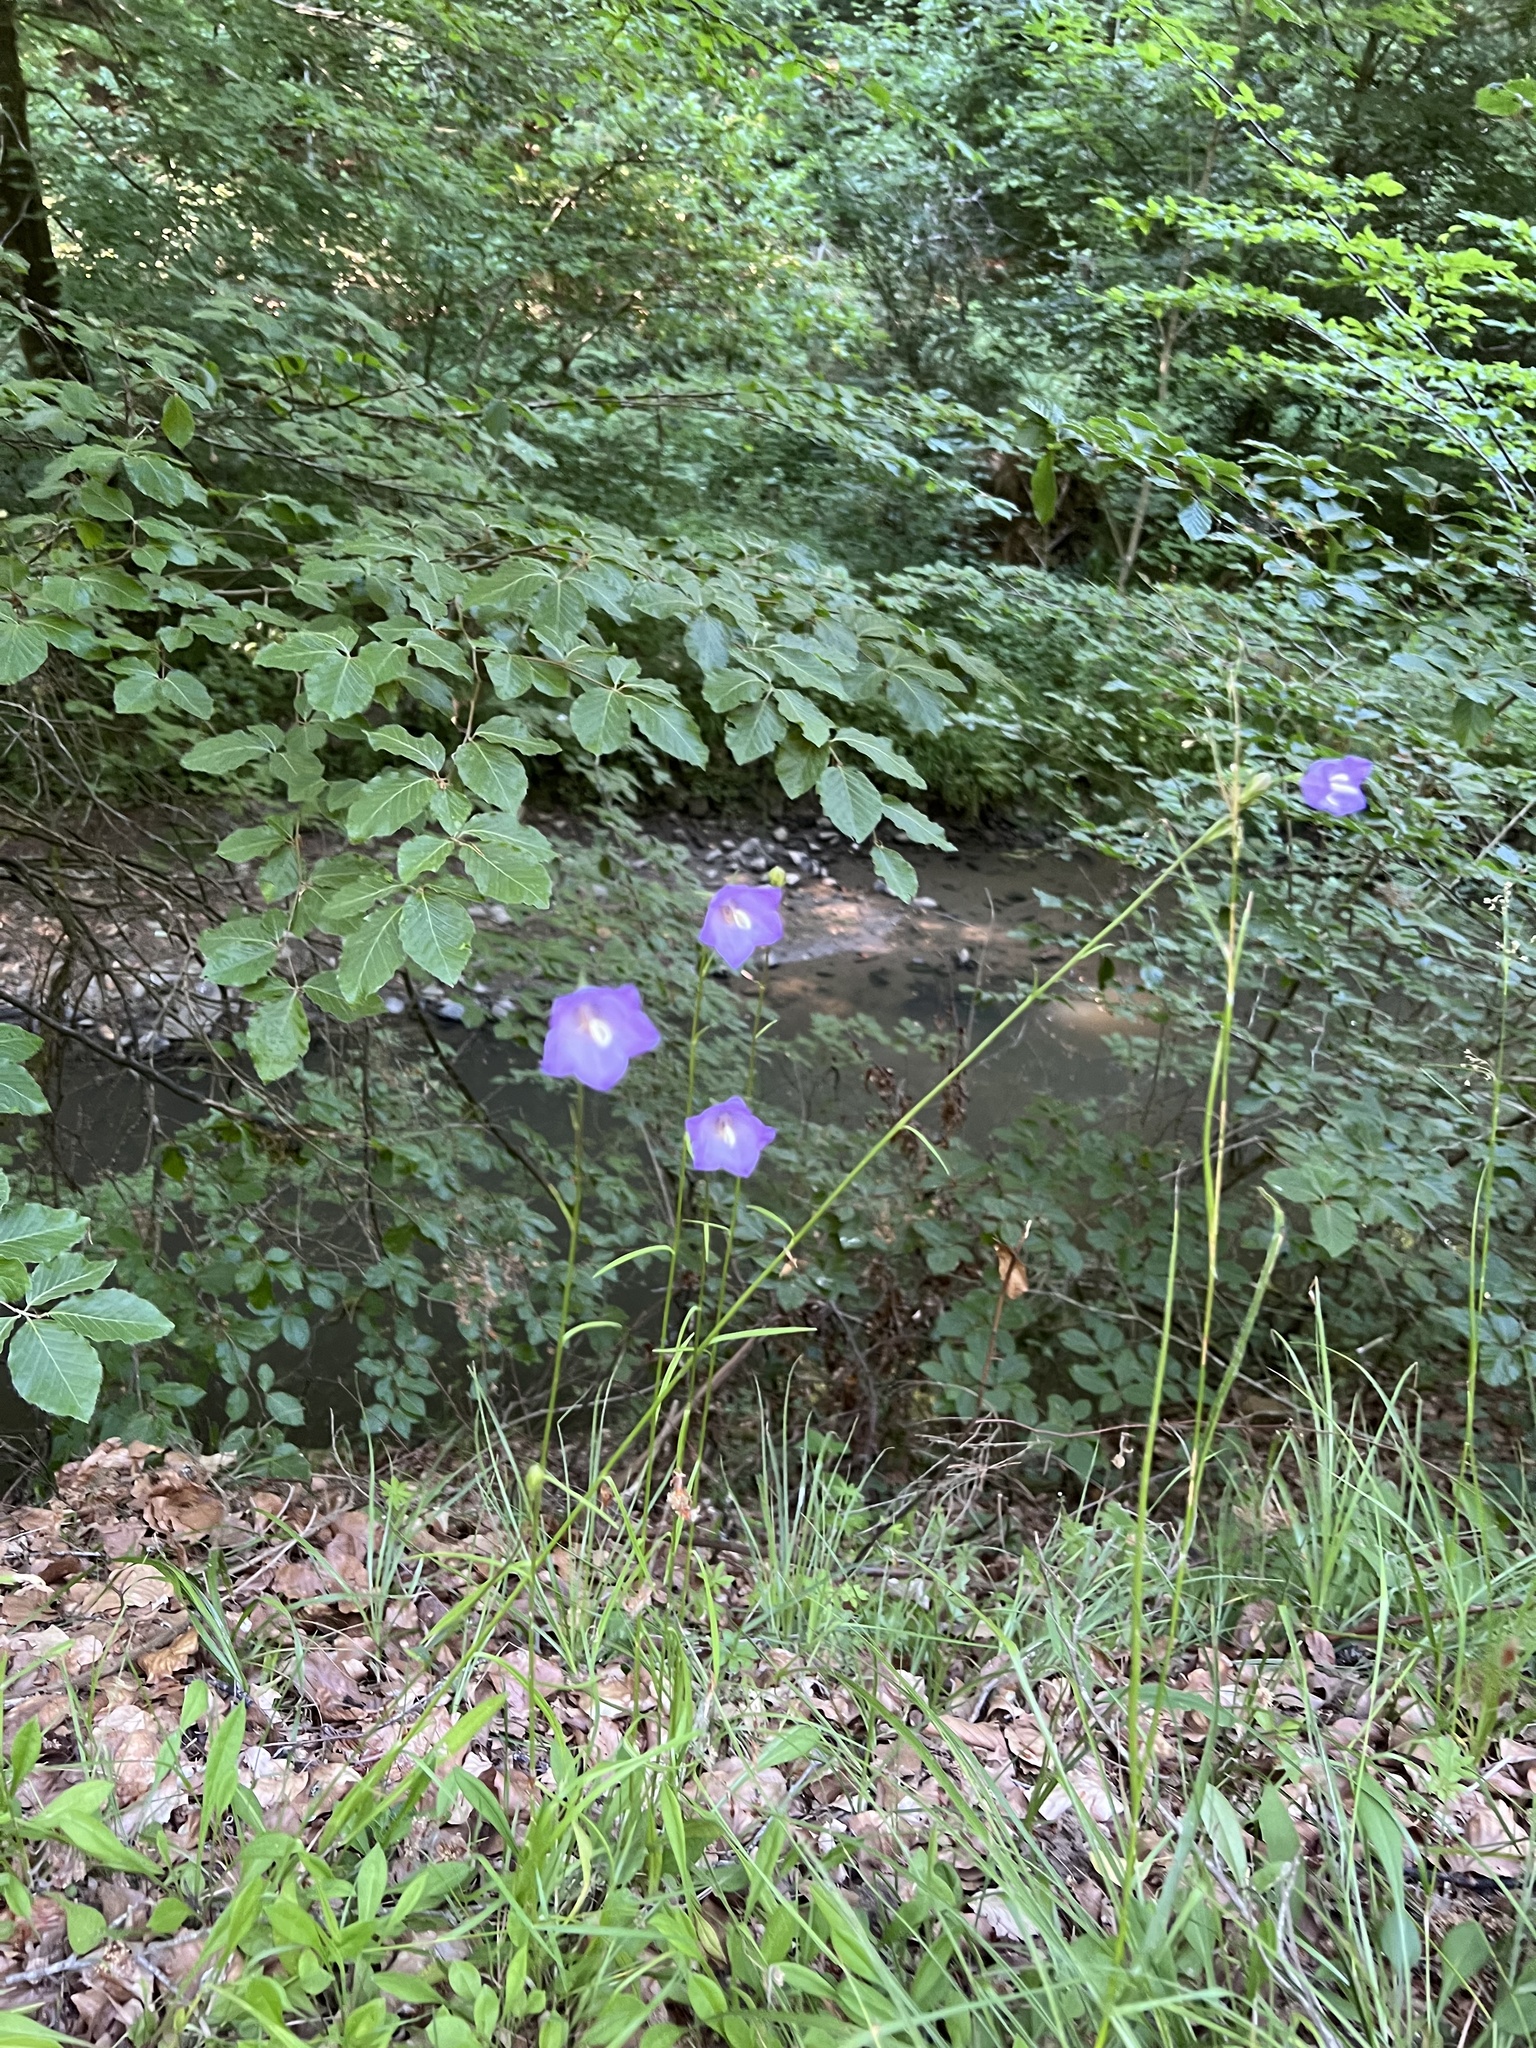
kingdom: Plantae
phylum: Tracheophyta
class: Magnoliopsida
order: Asterales
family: Campanulaceae
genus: Campanula
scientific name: Campanula persicifolia
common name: Peach-leaved bellflower
